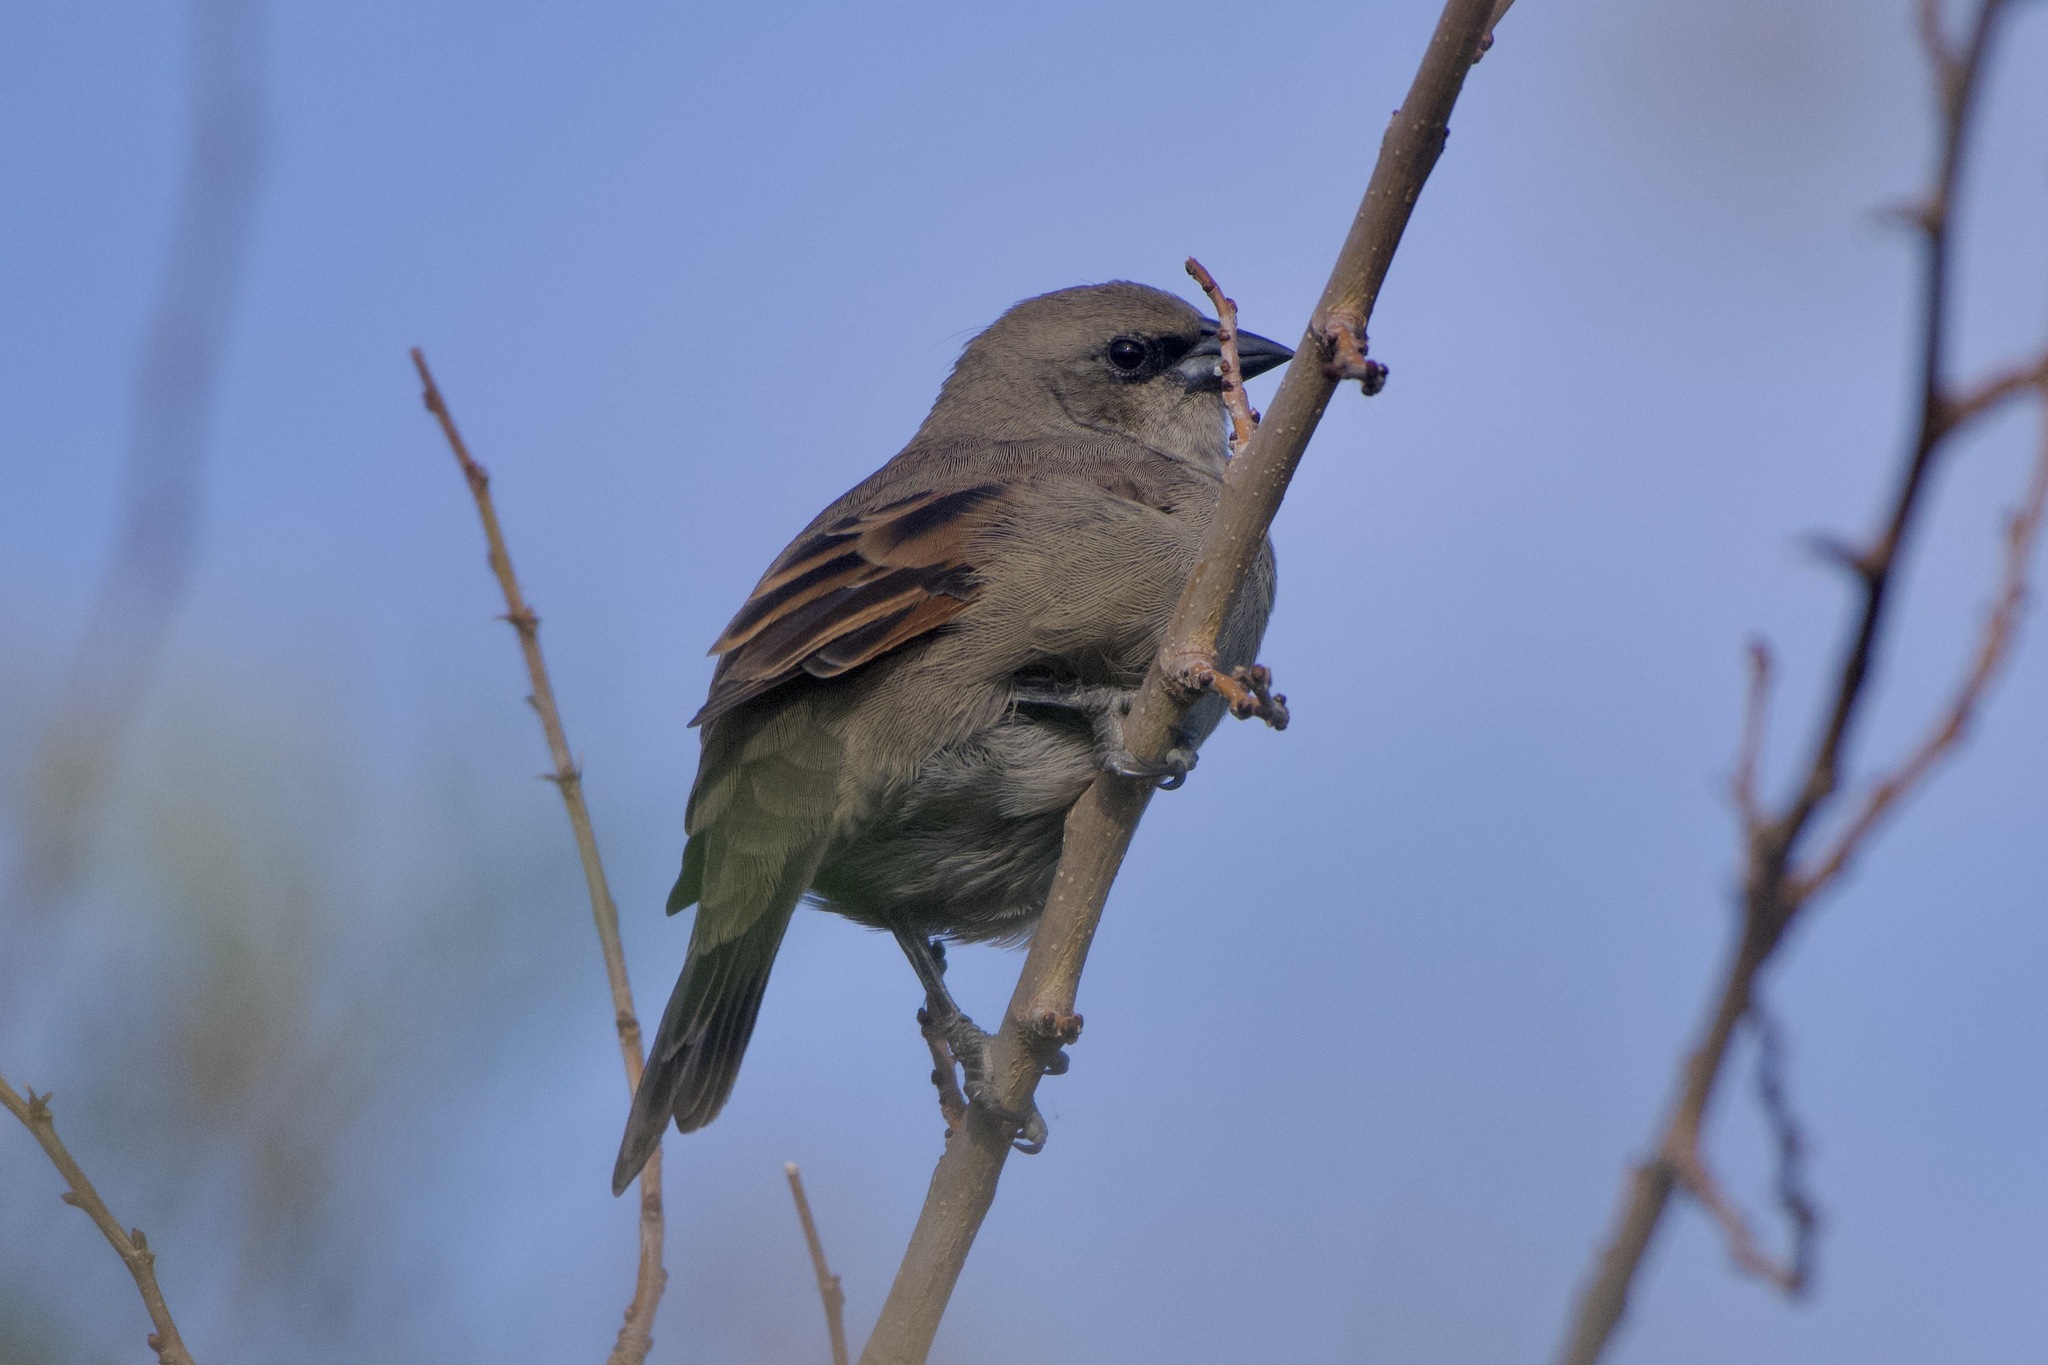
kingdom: Animalia
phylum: Chordata
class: Aves
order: Passeriformes
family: Icteridae
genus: Agelaioides
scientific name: Agelaioides badius
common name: Baywing
